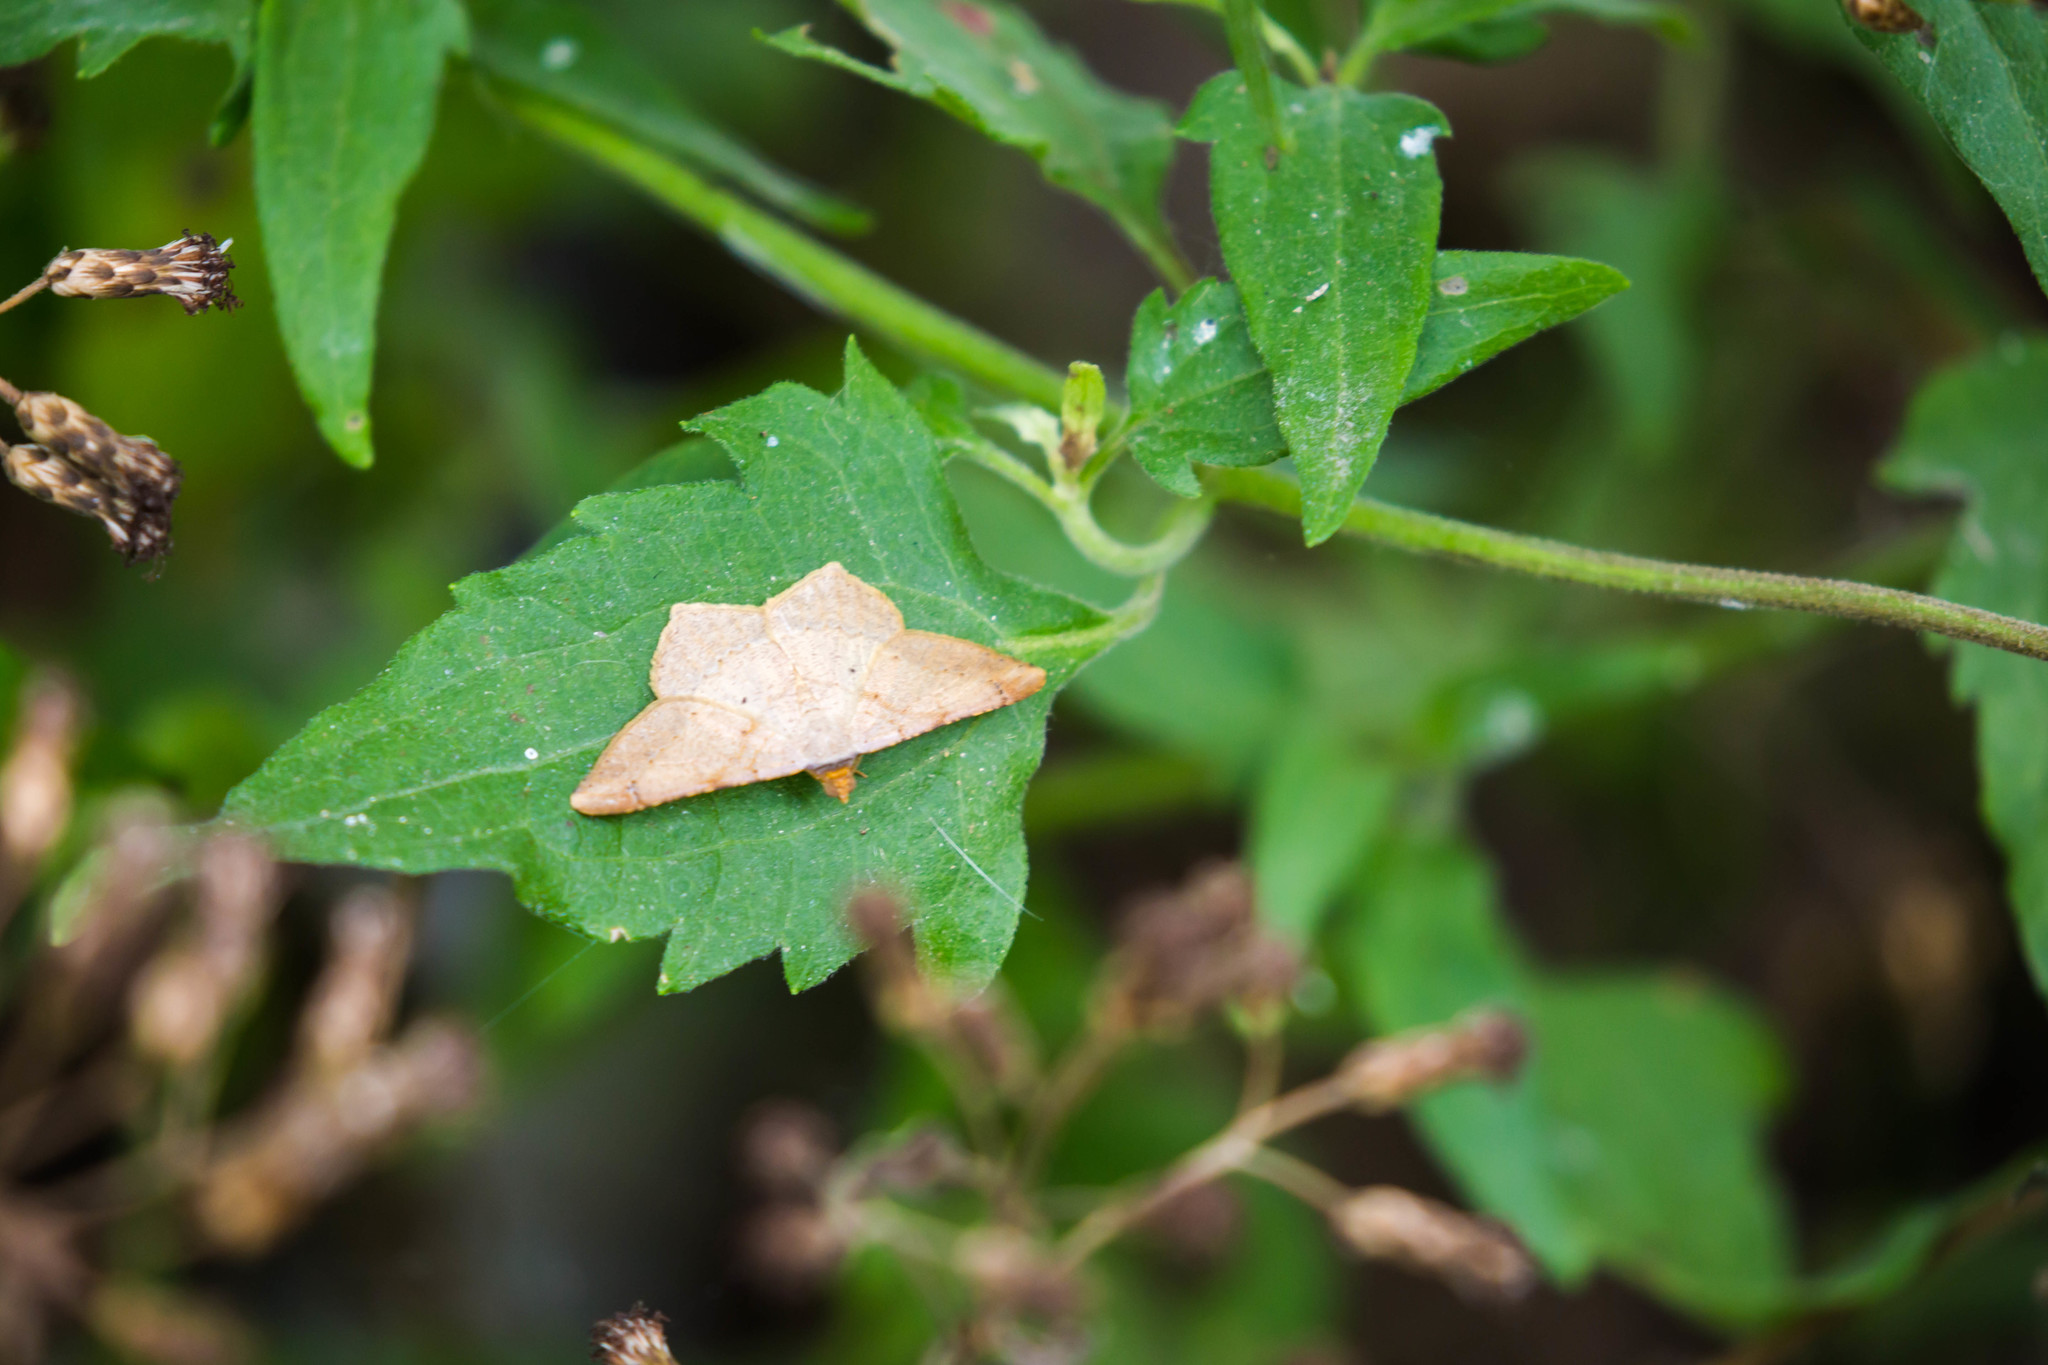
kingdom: Animalia
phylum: Arthropoda
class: Insecta
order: Lepidoptera
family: Geometridae
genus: Macaria
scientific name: Macaria abydata
